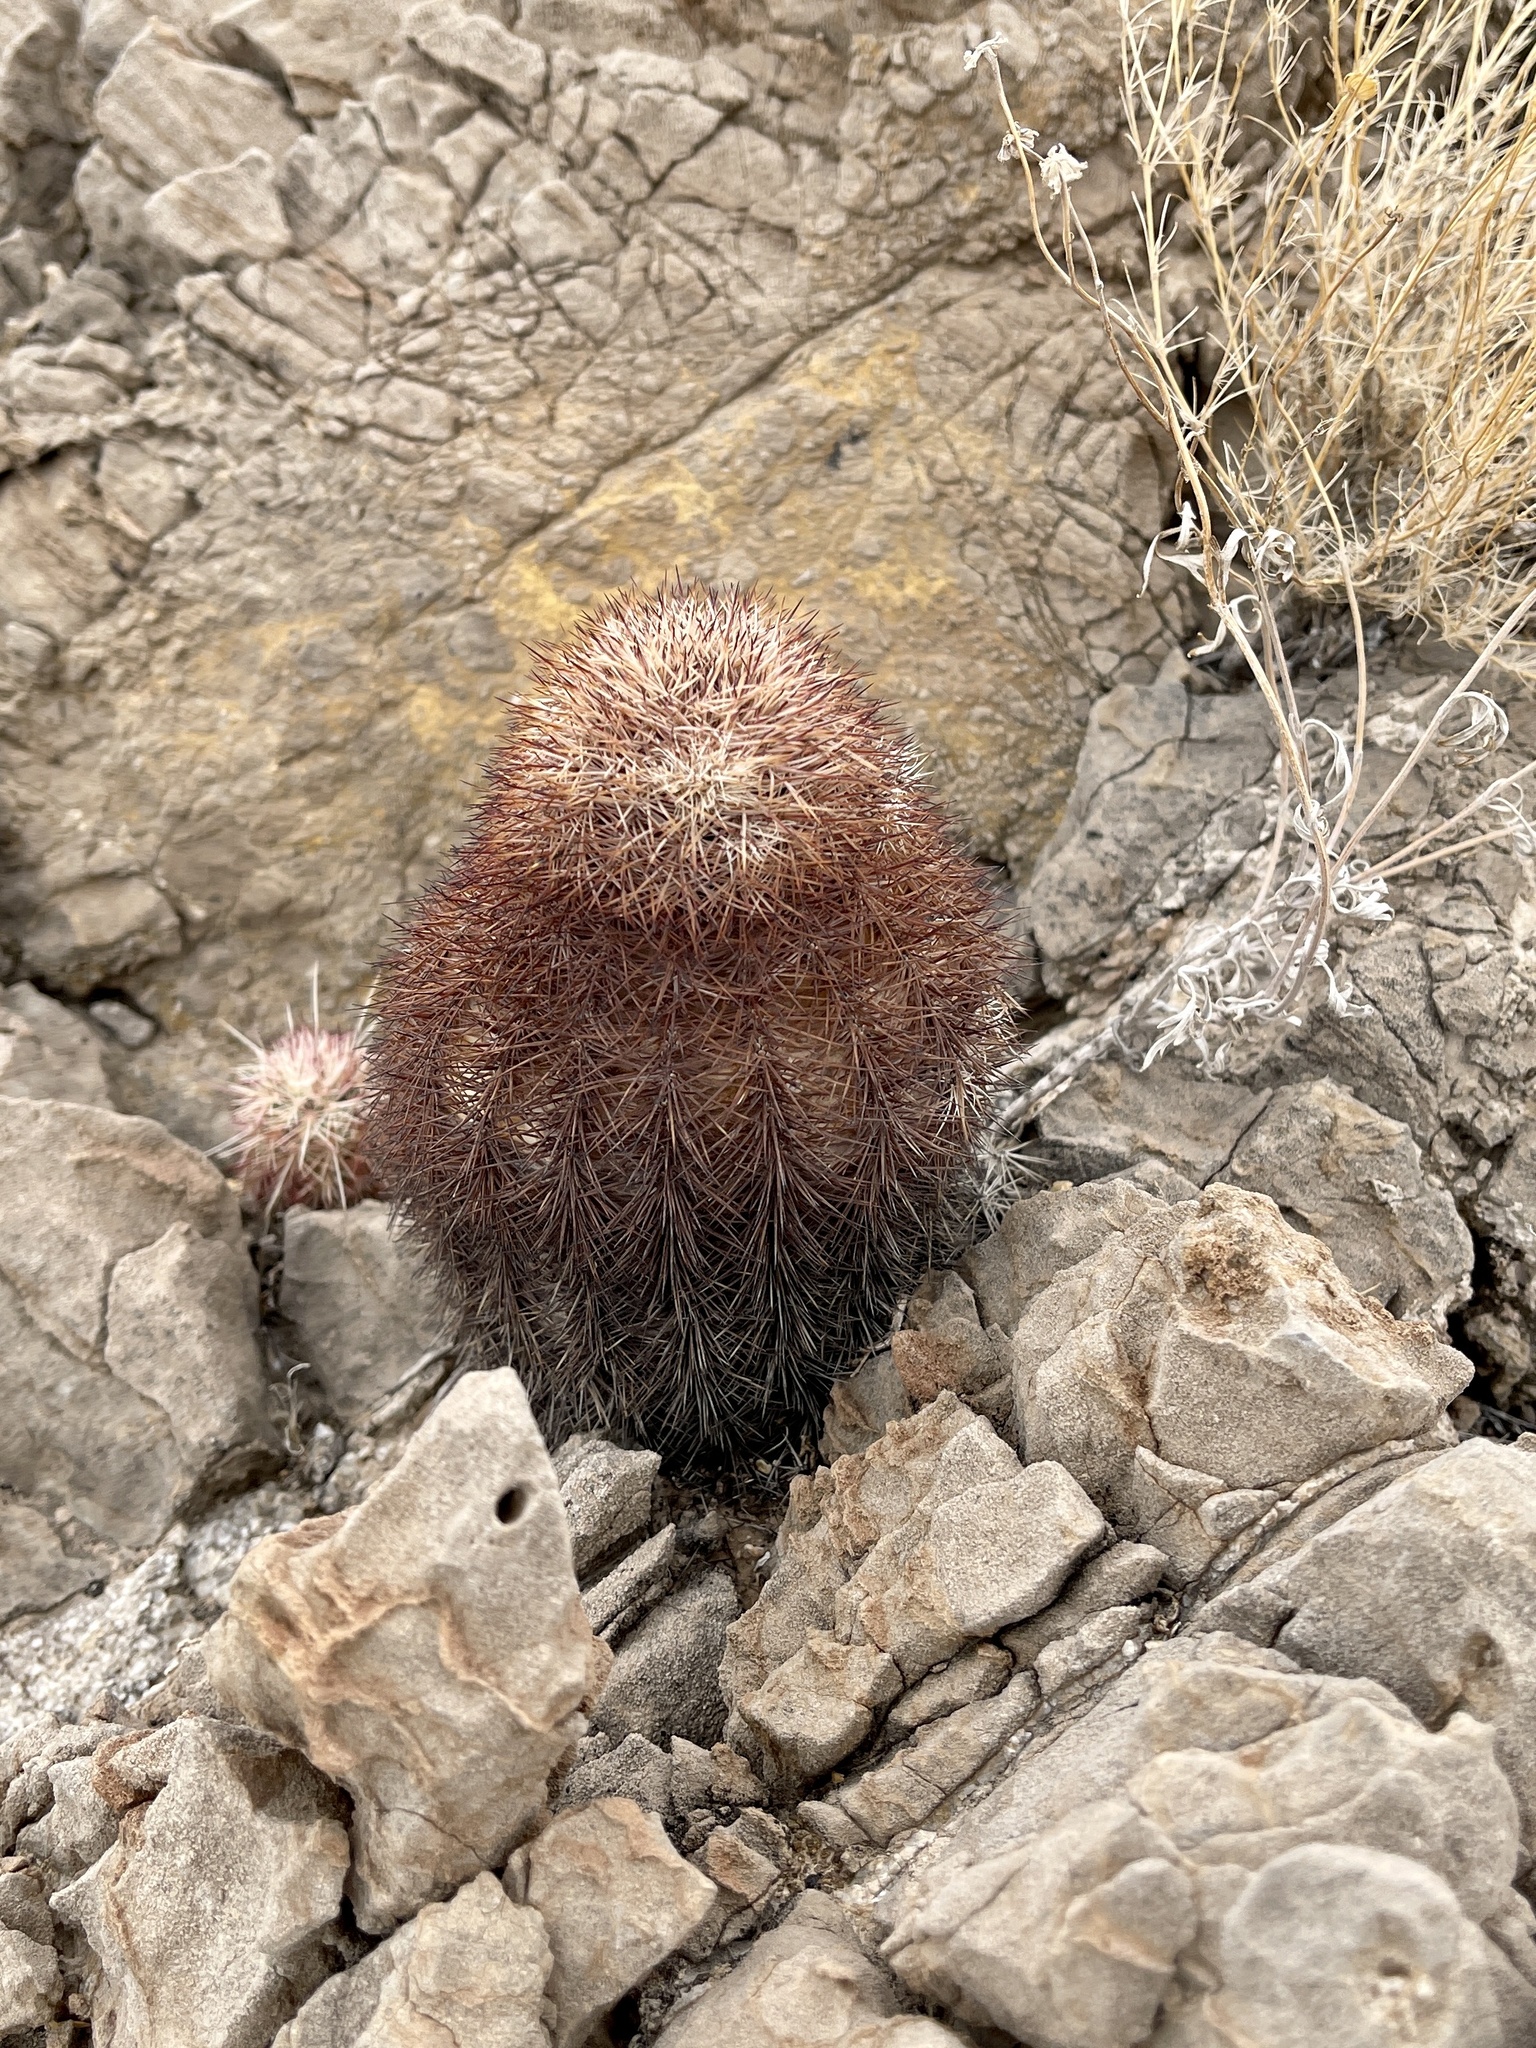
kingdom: Plantae
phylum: Tracheophyta
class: Magnoliopsida
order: Caryophyllales
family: Cactaceae
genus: Echinocereus
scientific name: Echinocereus dasyacanthus
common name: Spiny hedgehog cactus
